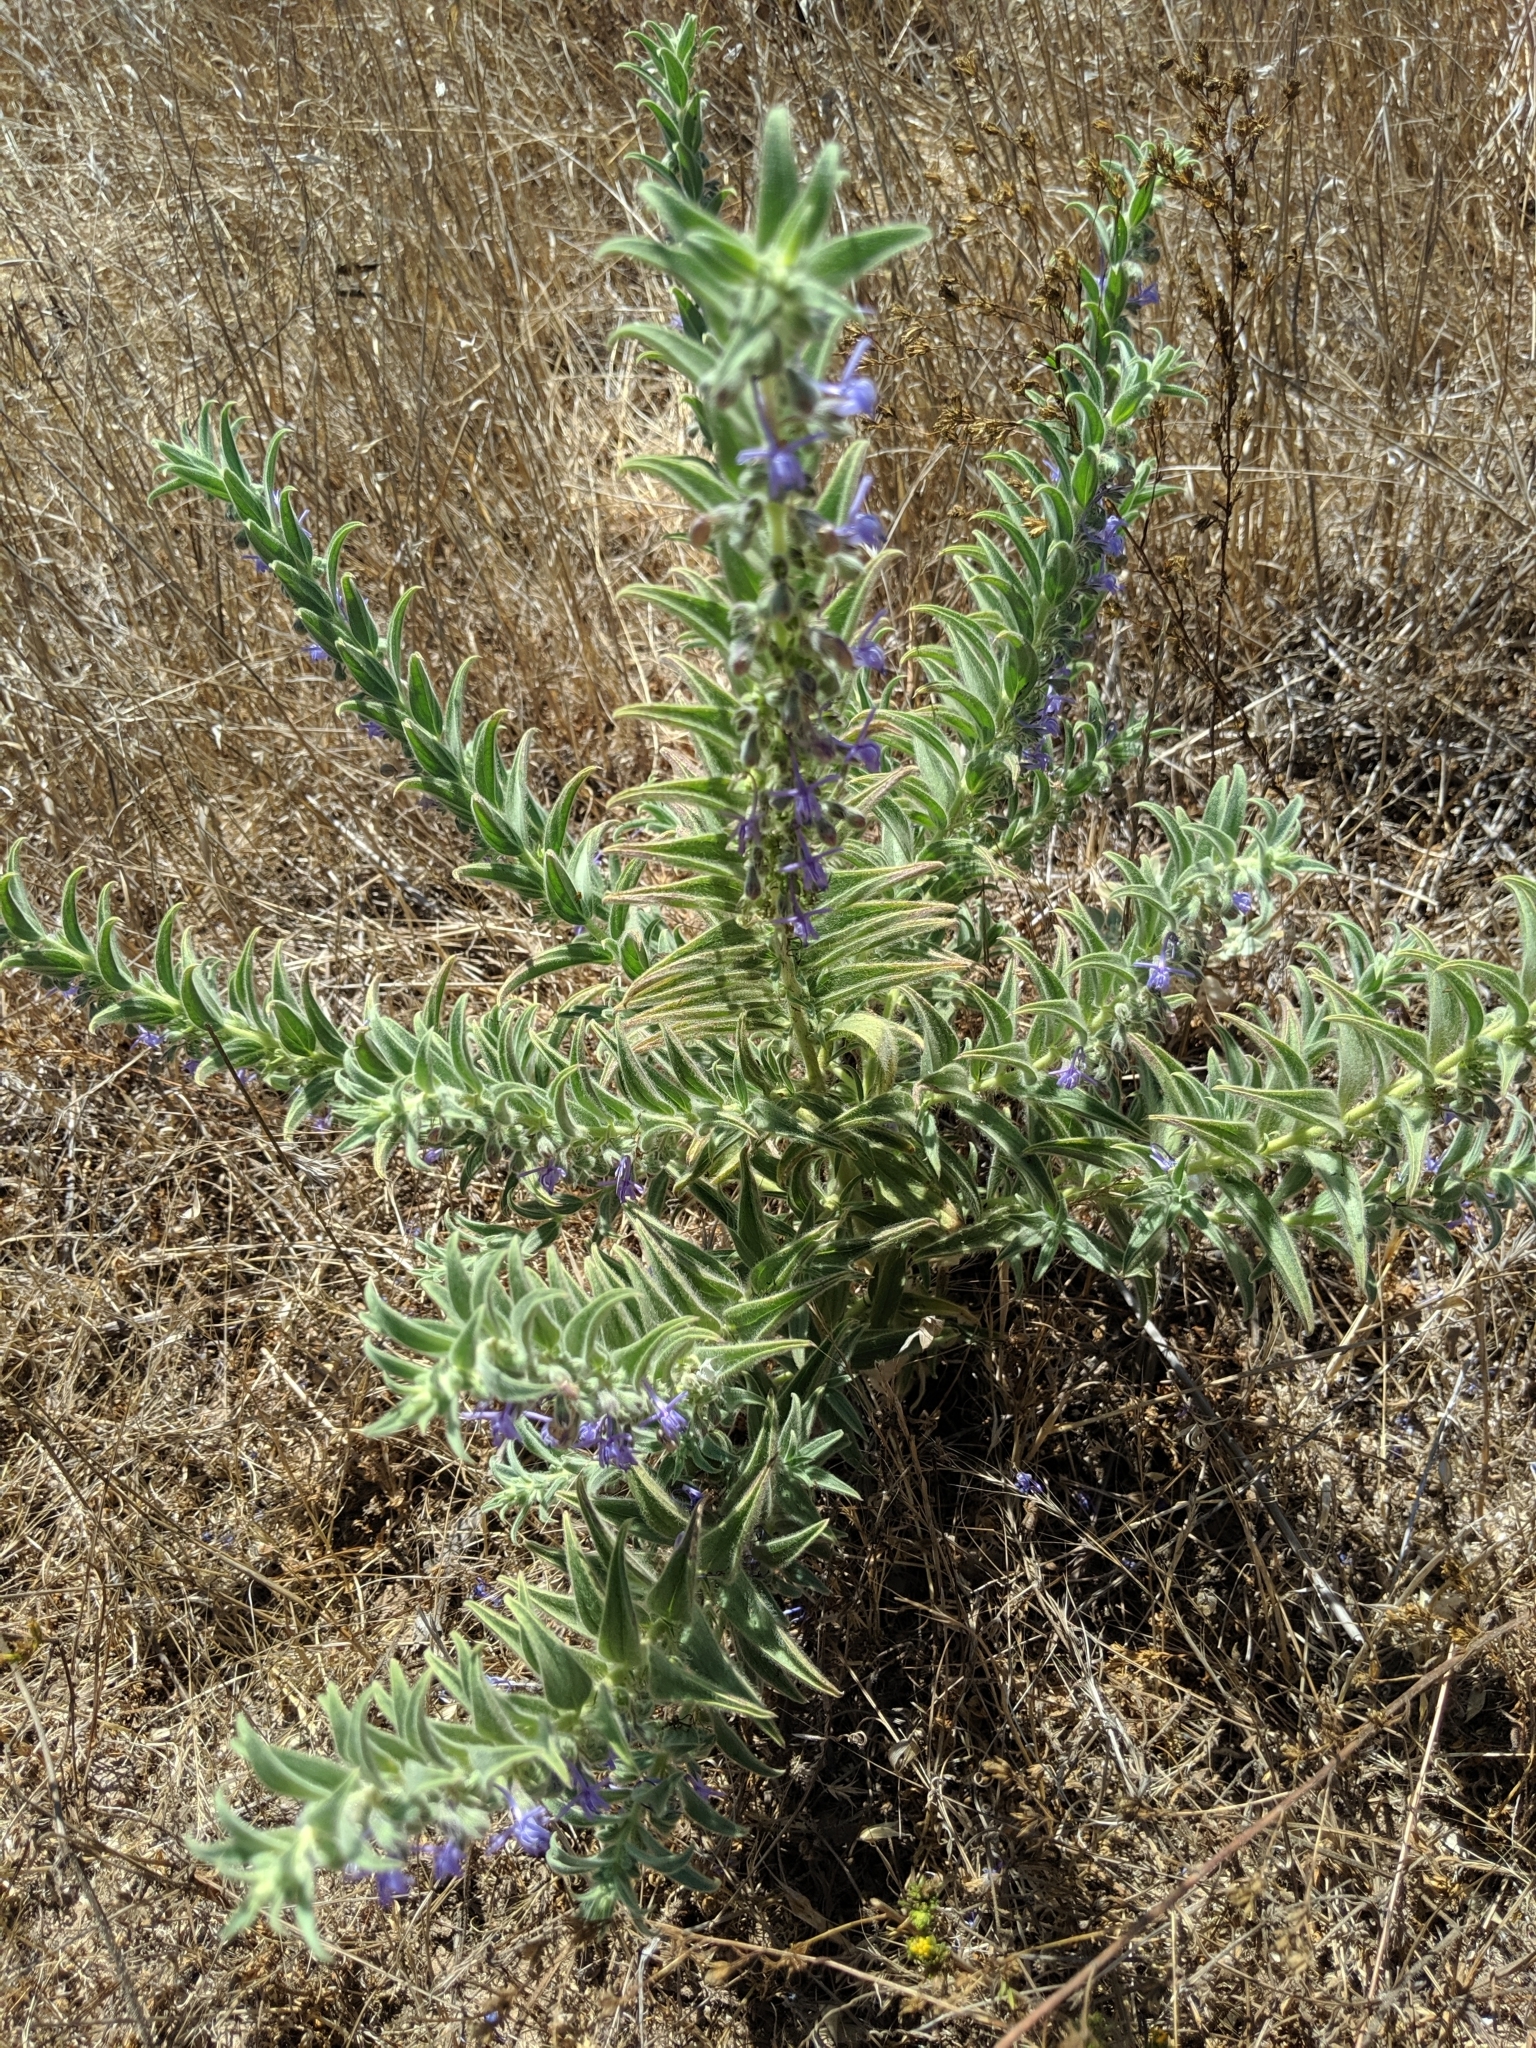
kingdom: Plantae
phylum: Tracheophyta
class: Magnoliopsida
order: Lamiales
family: Lamiaceae
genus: Trichostema
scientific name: Trichostema lanceolatum
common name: Vinegar-weed
